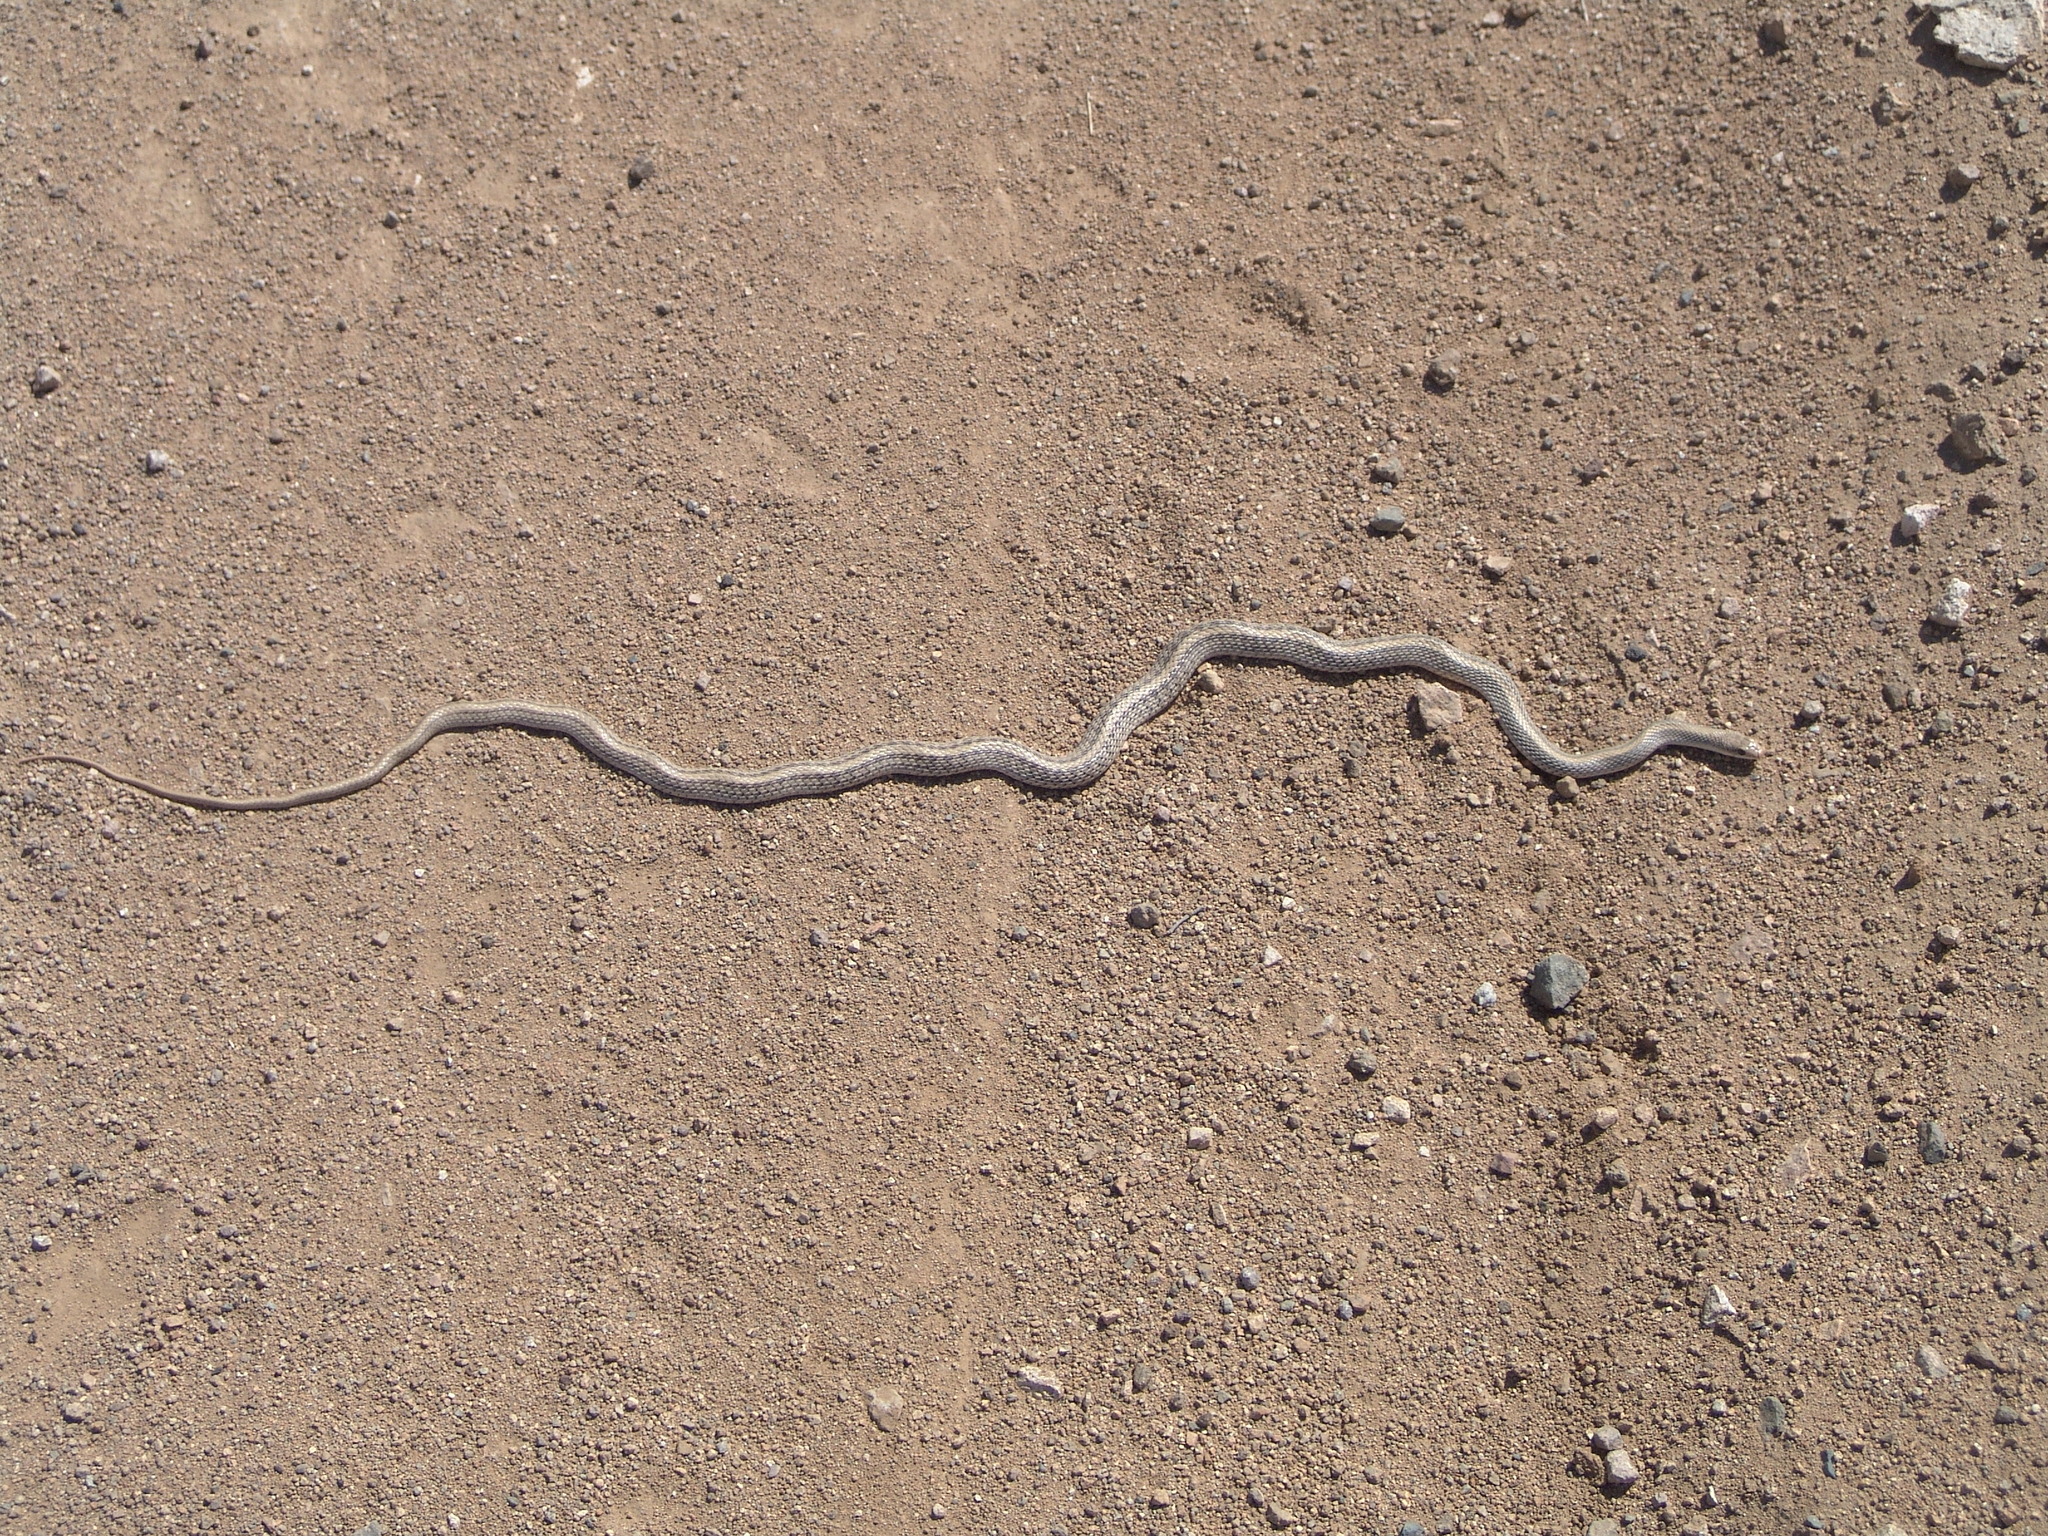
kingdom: Animalia
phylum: Chordata
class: Squamata
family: Colubridae
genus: Salvadora
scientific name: Salvadora hexalepis
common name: Western patchnose snake
